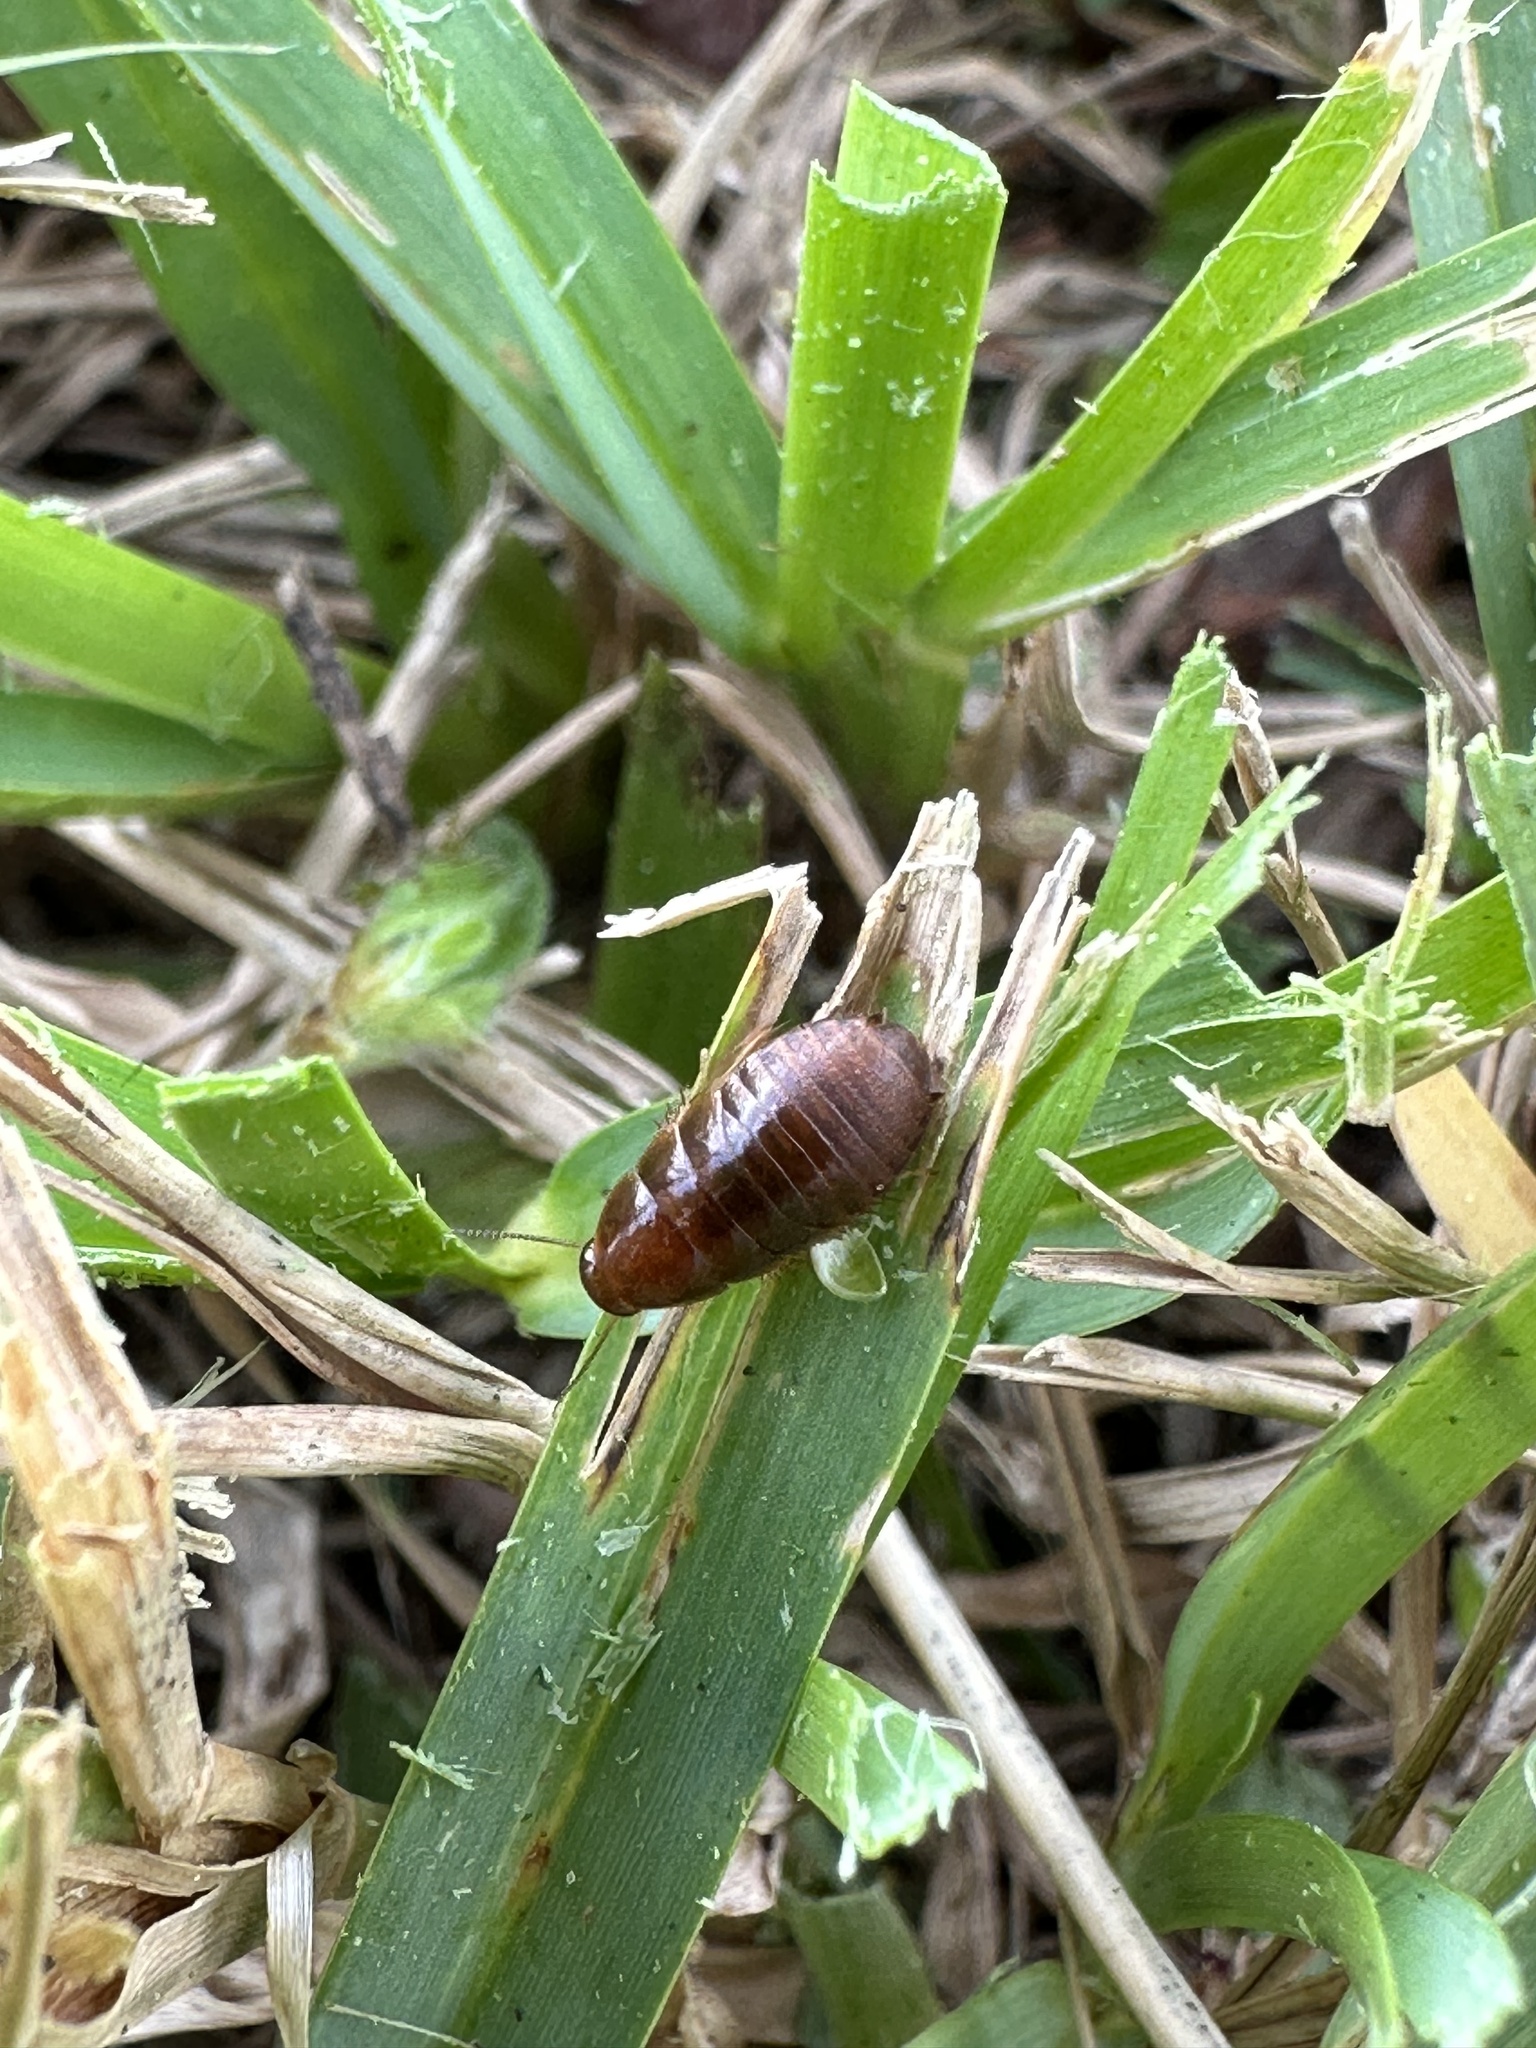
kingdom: Animalia
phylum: Arthropoda
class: Insecta
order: Blattodea
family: Blaberidae
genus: Pycnoscelus
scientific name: Pycnoscelus surinamensis
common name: Surinam cockroach
